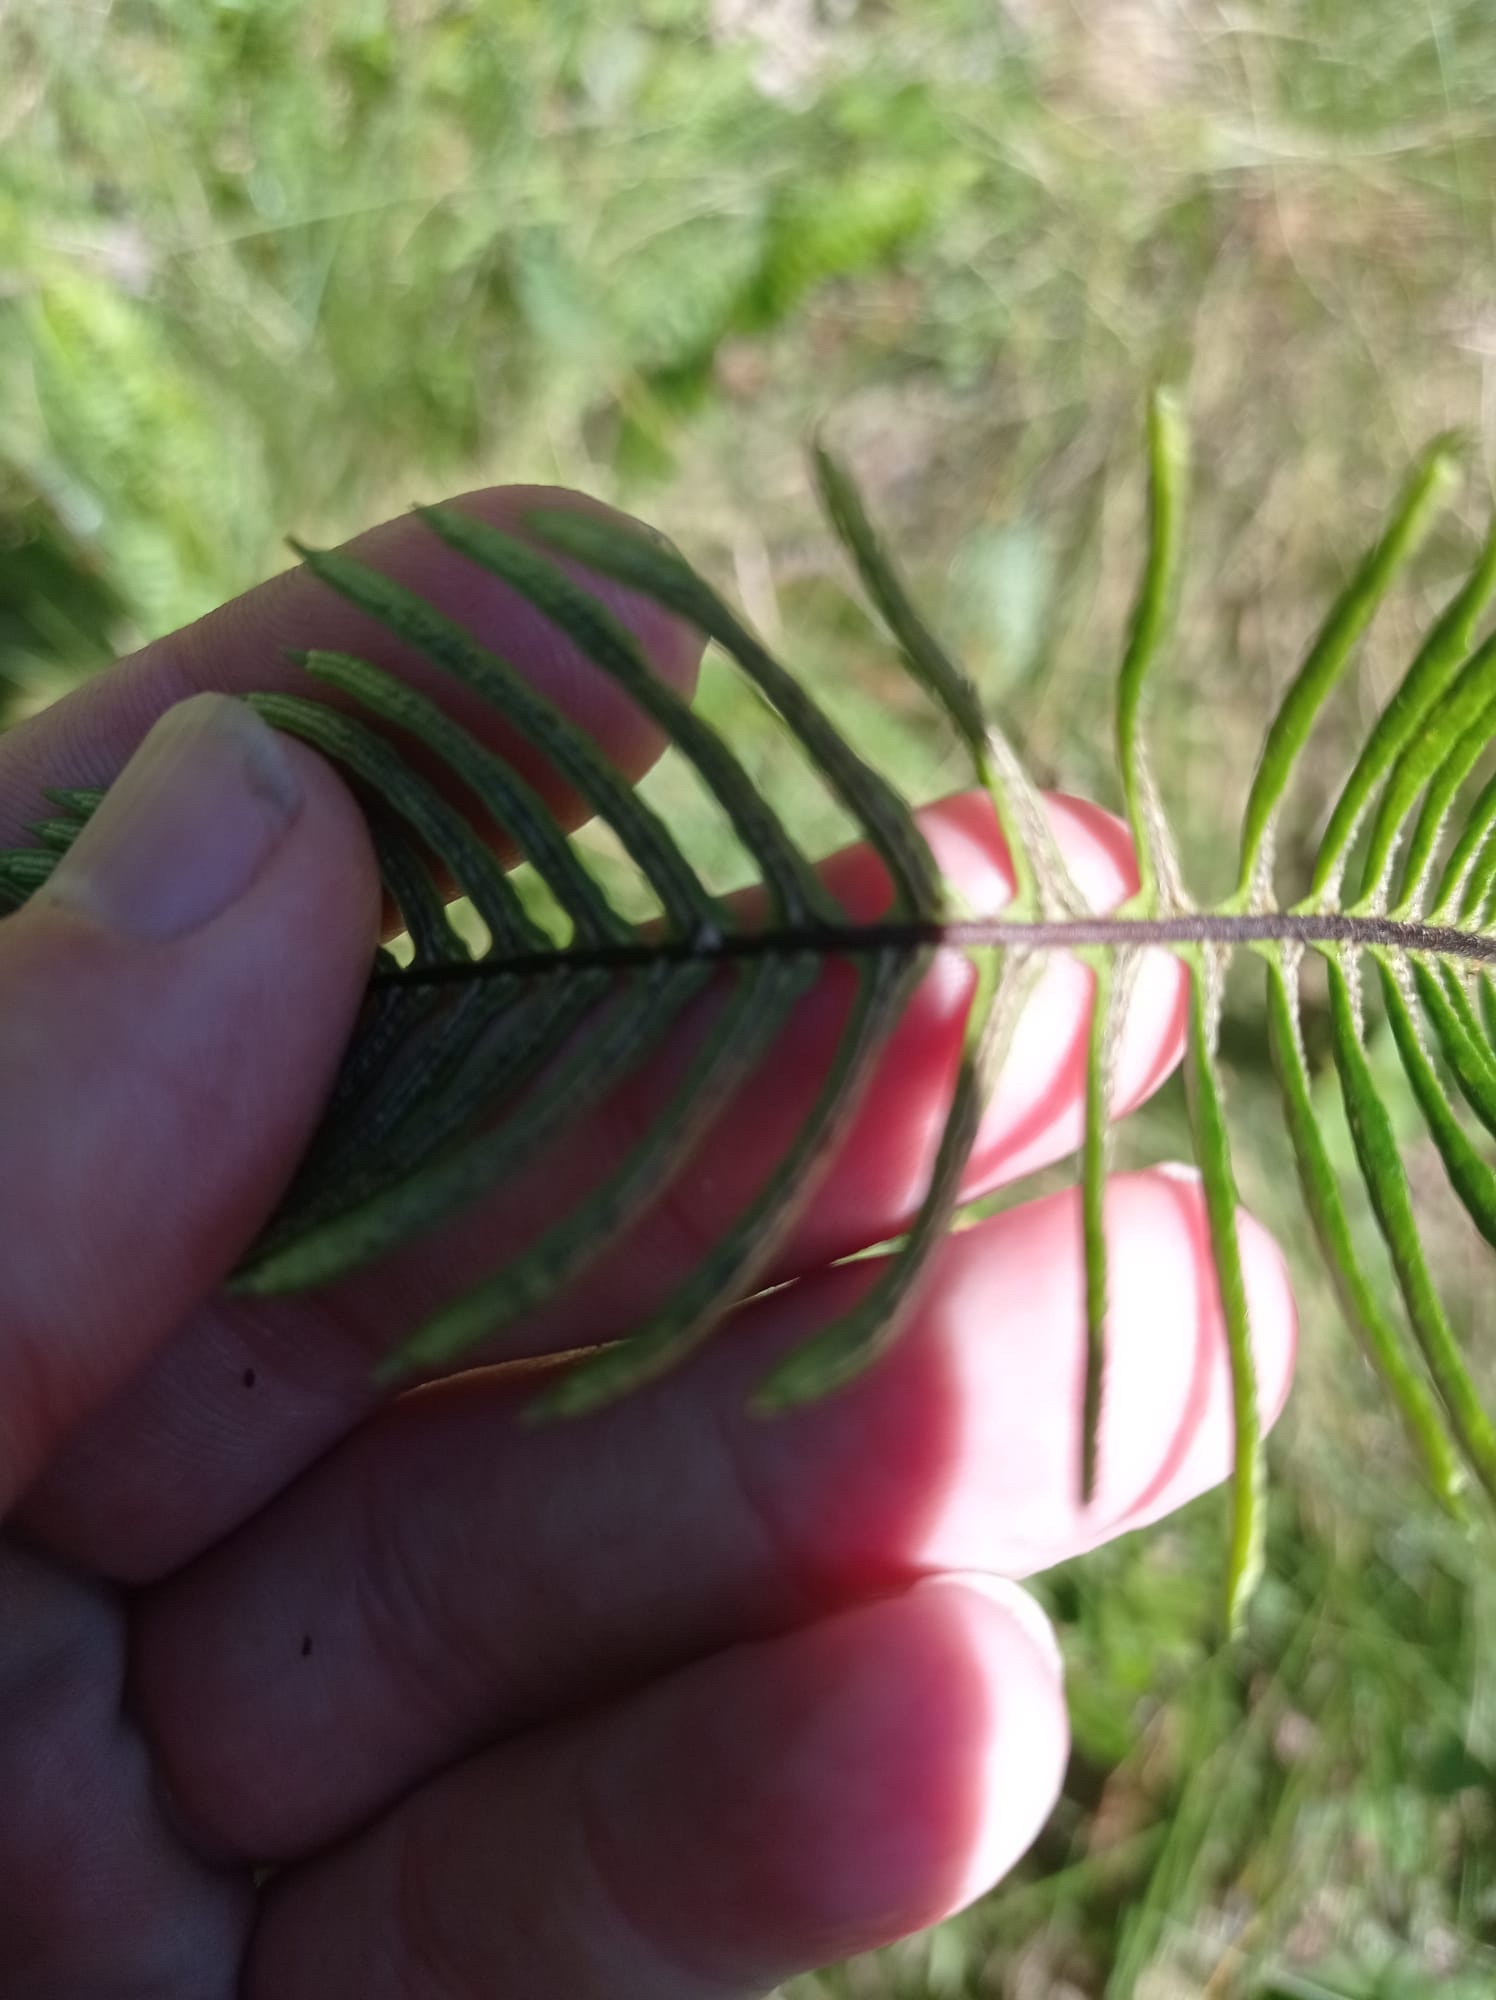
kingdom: Plantae
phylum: Tracheophyta
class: Polypodiopsida
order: Polypodiales
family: Blechnaceae
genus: Struthiopteris
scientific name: Struthiopteris spicant
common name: Deer fern
